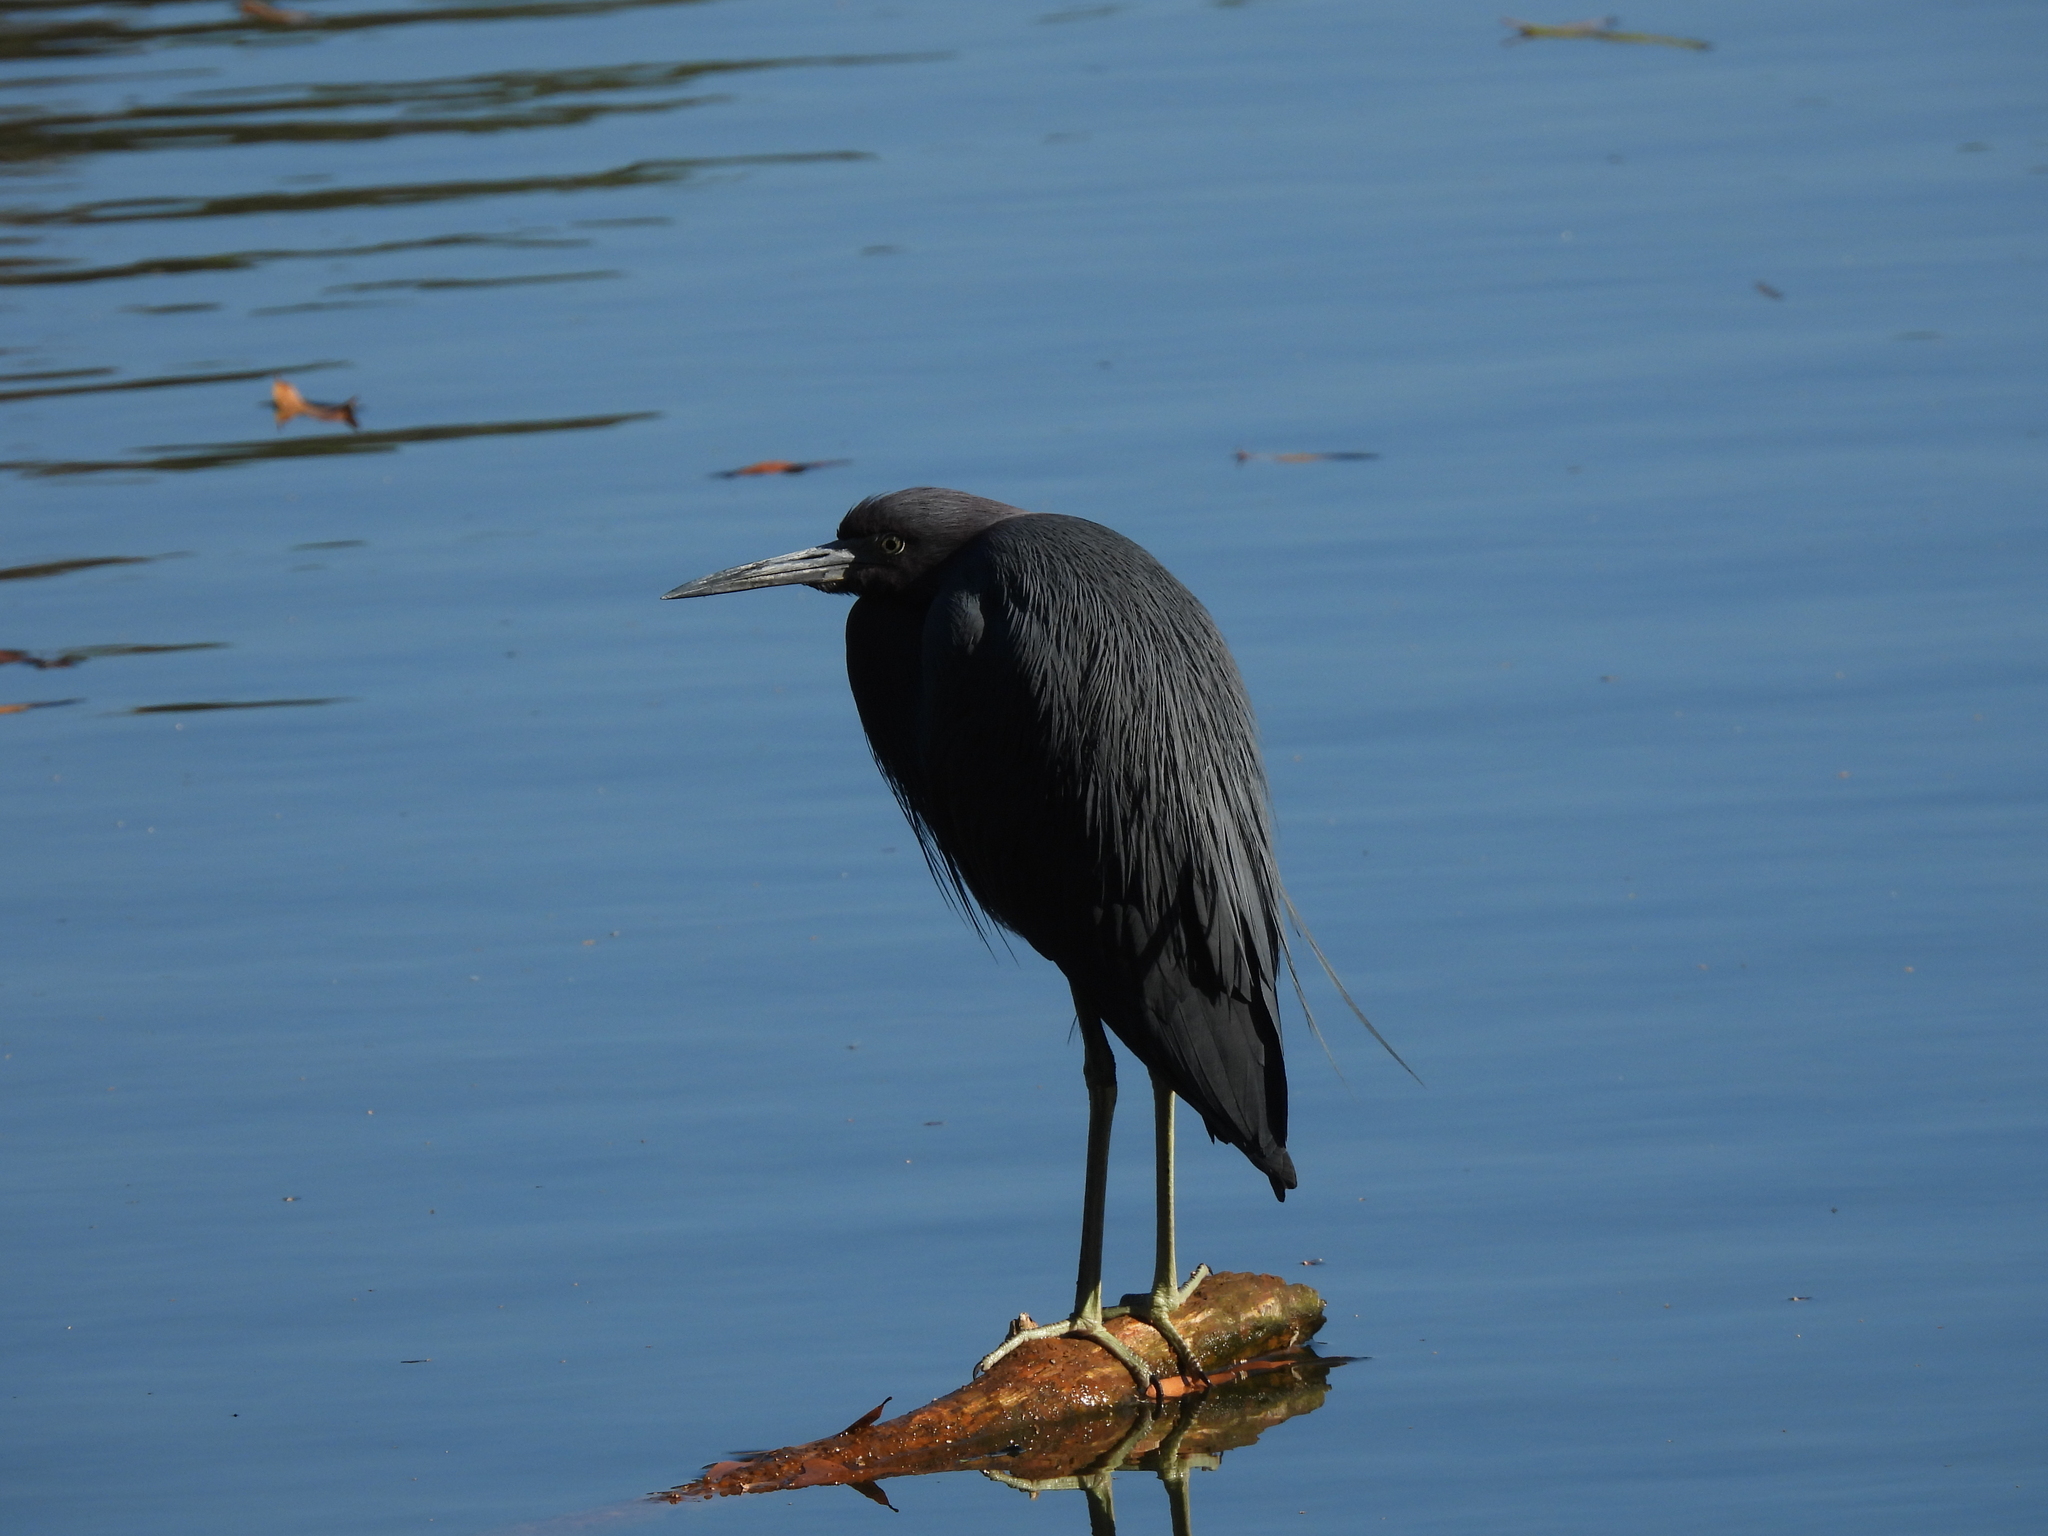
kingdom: Animalia
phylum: Chordata
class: Aves
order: Pelecaniformes
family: Ardeidae
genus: Egretta
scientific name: Egretta caerulea
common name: Little blue heron
